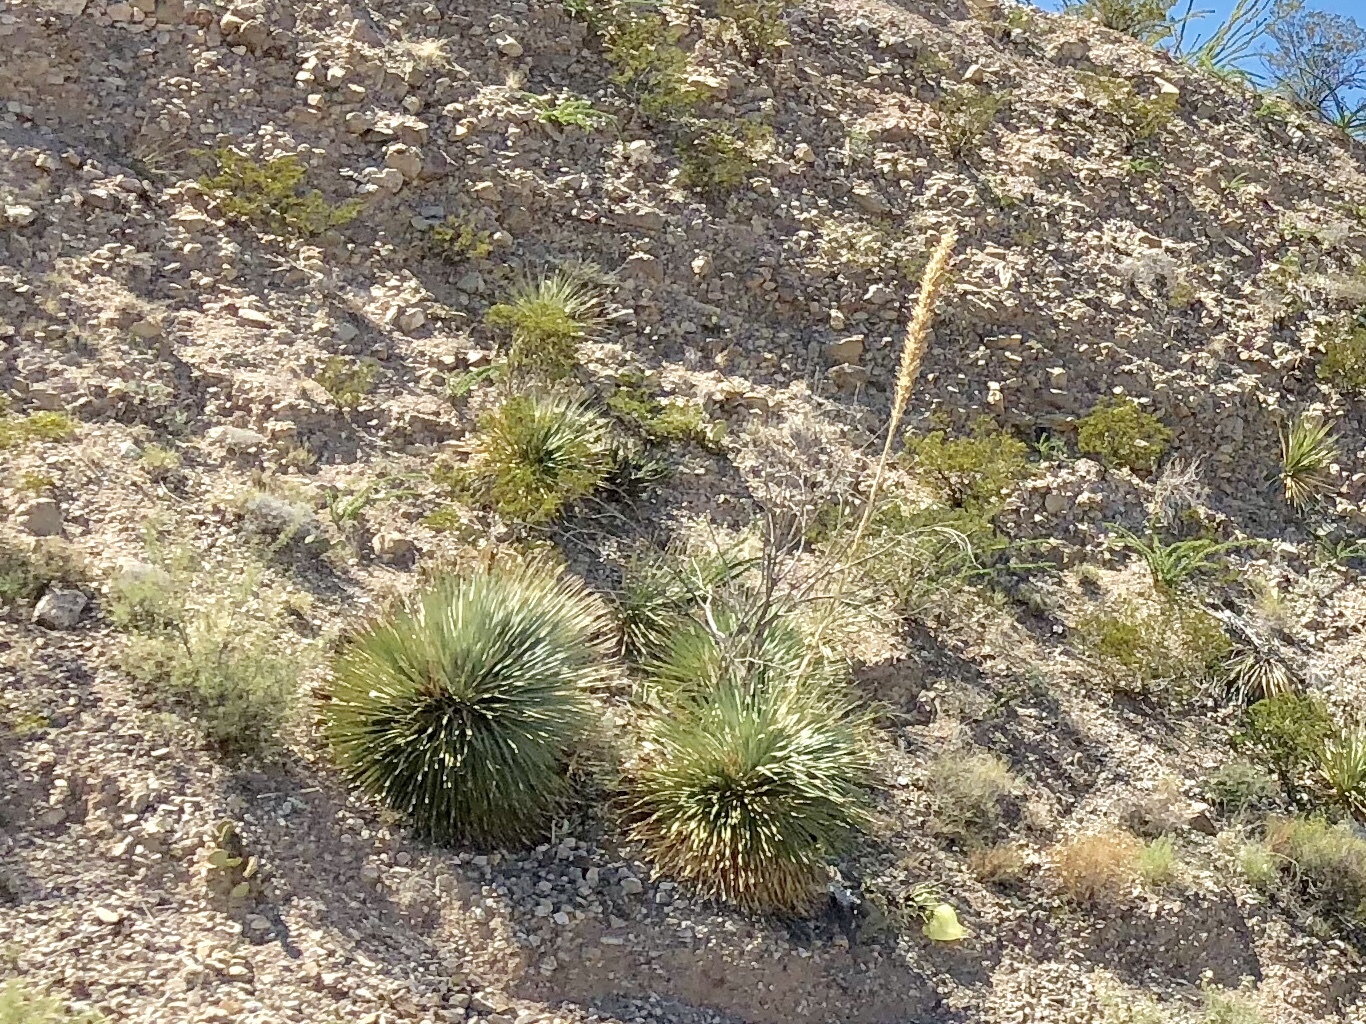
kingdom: Plantae
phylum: Tracheophyta
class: Liliopsida
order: Asparagales
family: Asparagaceae
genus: Dasylirion
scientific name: Dasylirion wheeleri
